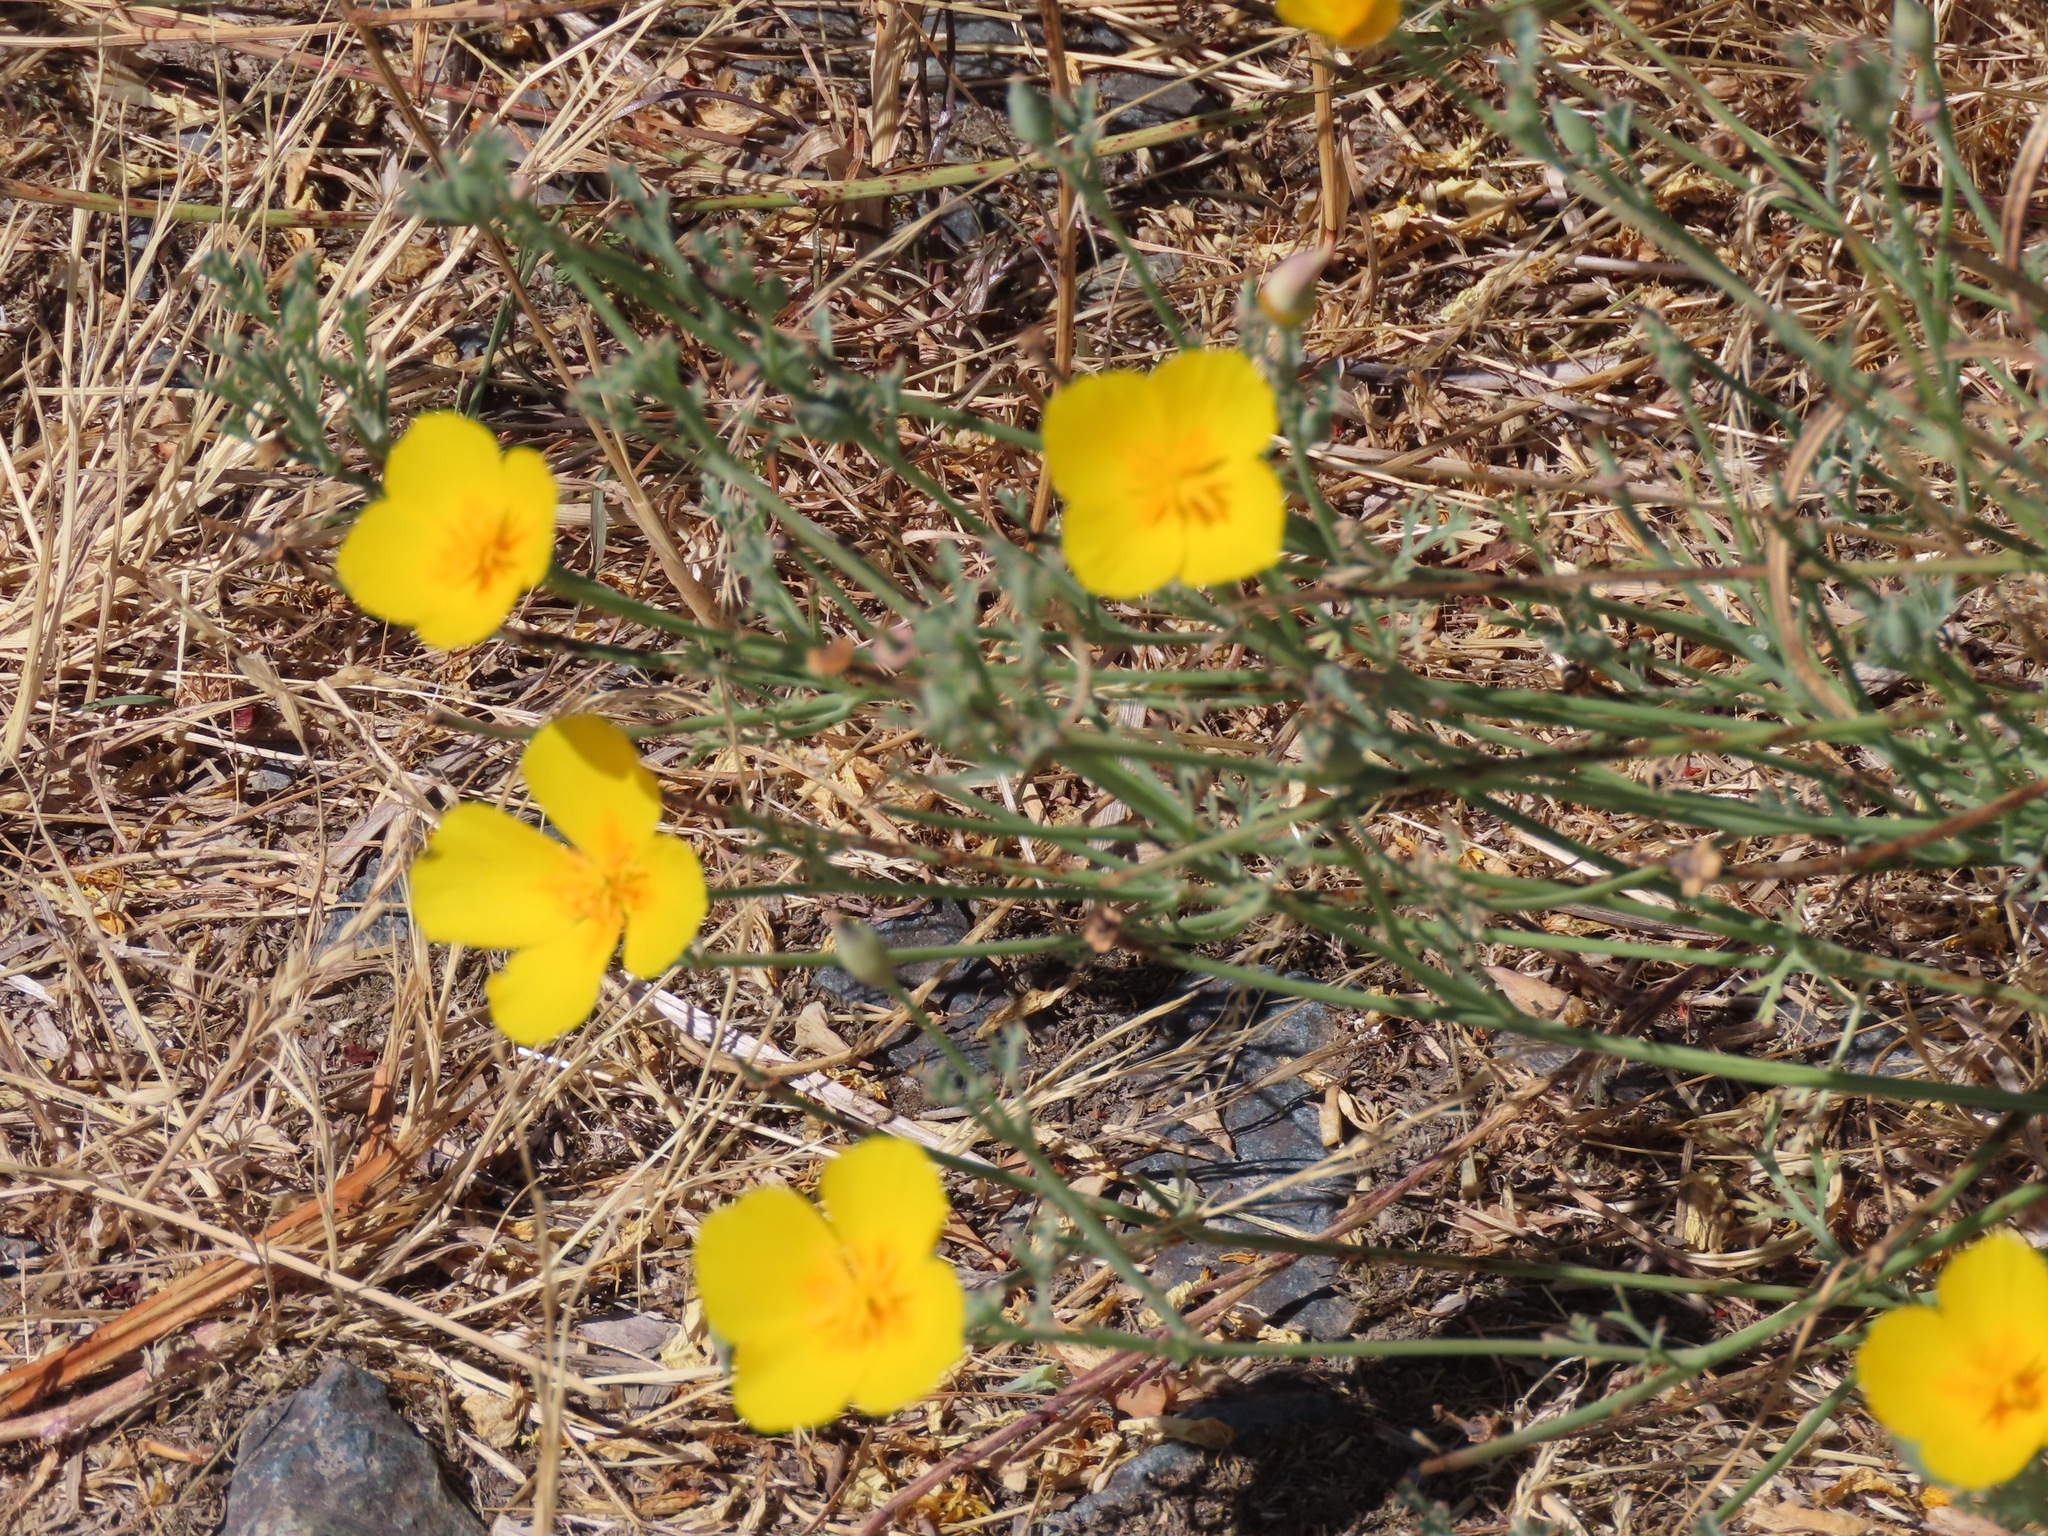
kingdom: Plantae
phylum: Tracheophyta
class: Magnoliopsida
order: Ranunculales
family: Papaveraceae
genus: Eschscholzia
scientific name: Eschscholzia californica
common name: California poppy
